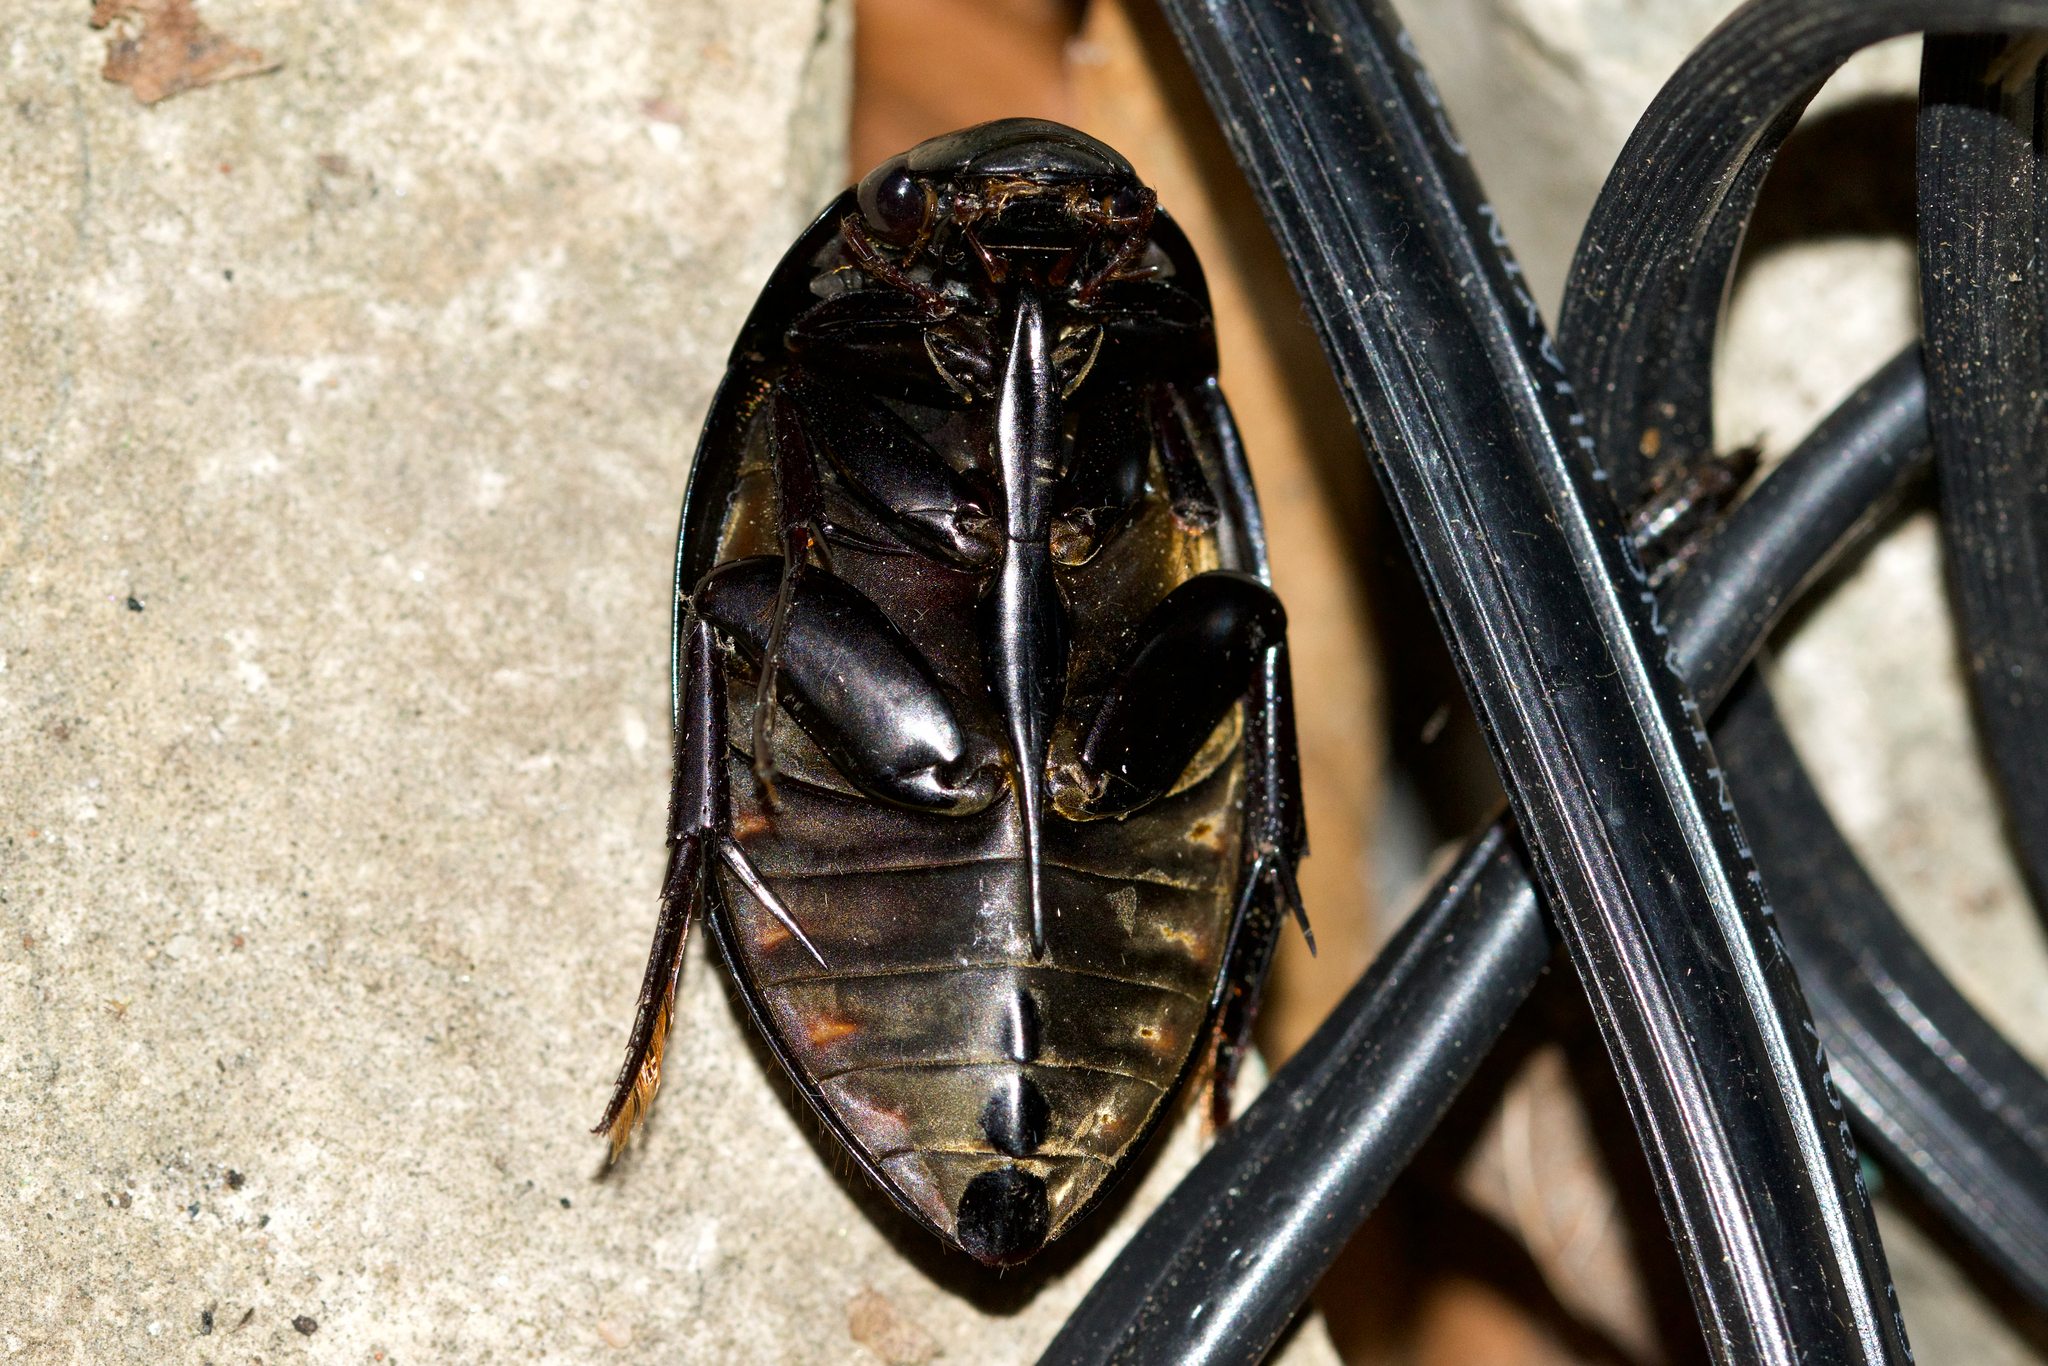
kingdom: Animalia
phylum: Arthropoda
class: Insecta
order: Coleoptera
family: Hydrophilidae
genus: Hydrophilus
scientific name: Hydrophilus ovatus
